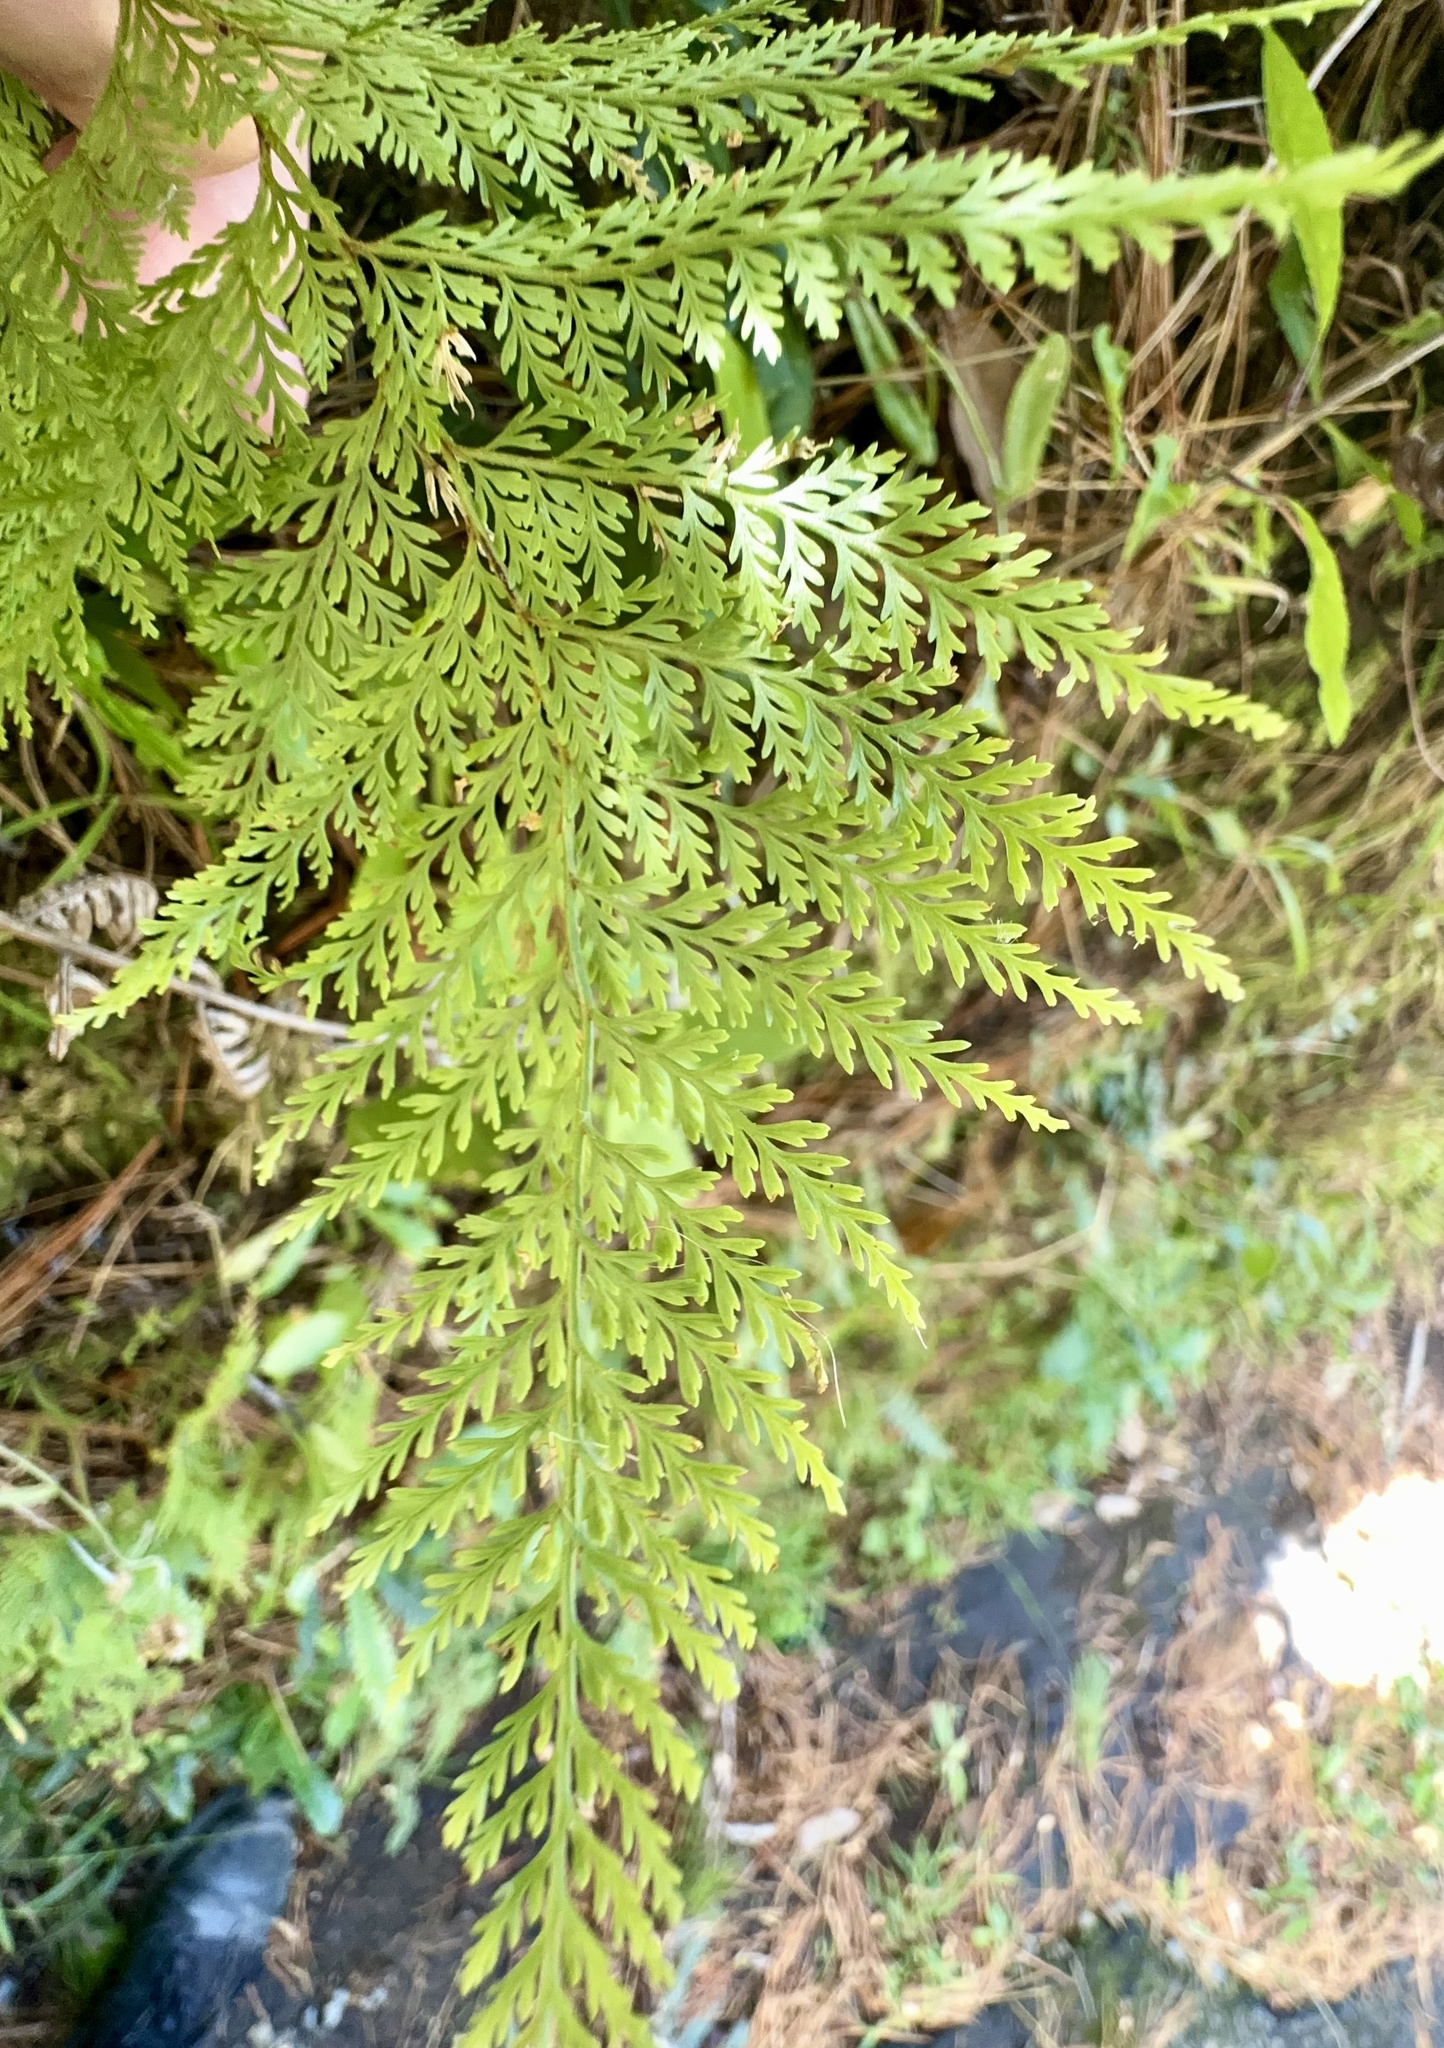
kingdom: Plantae
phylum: Tracheophyta
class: Polypodiopsida
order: Polypodiales
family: Dennstaedtiaceae
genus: Paesia
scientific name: Paesia scaberula
